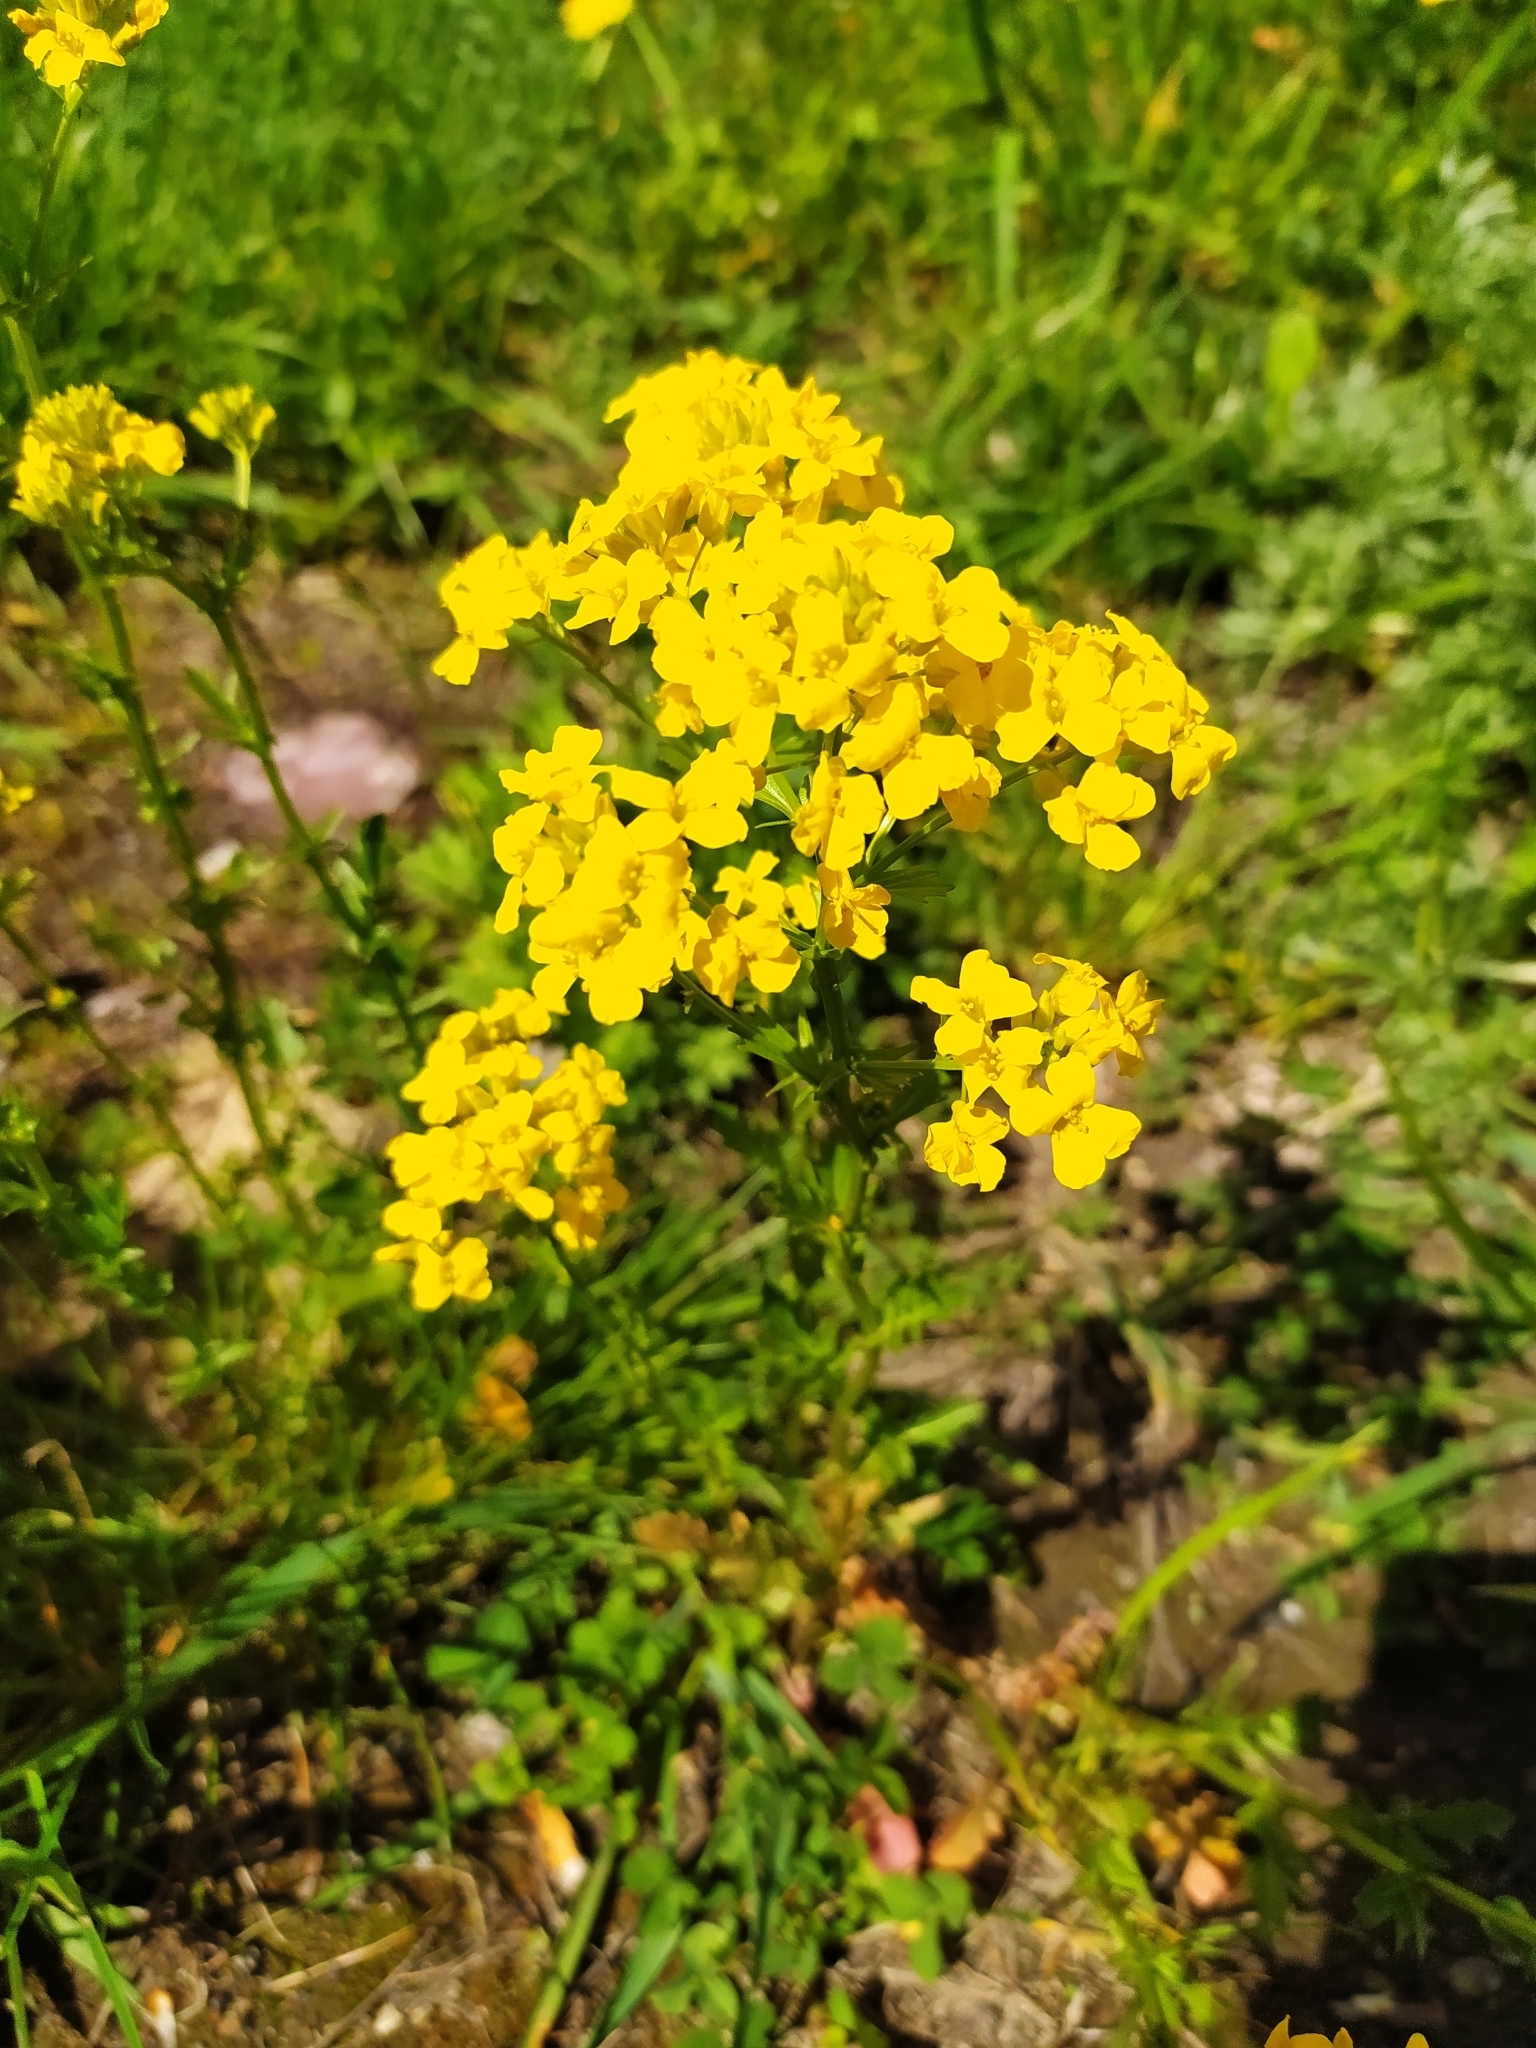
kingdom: Plantae
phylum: Tracheophyta
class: Magnoliopsida
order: Brassicales
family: Brassicaceae
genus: Barbarea
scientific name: Barbarea vulgaris
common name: Cressy-greens
